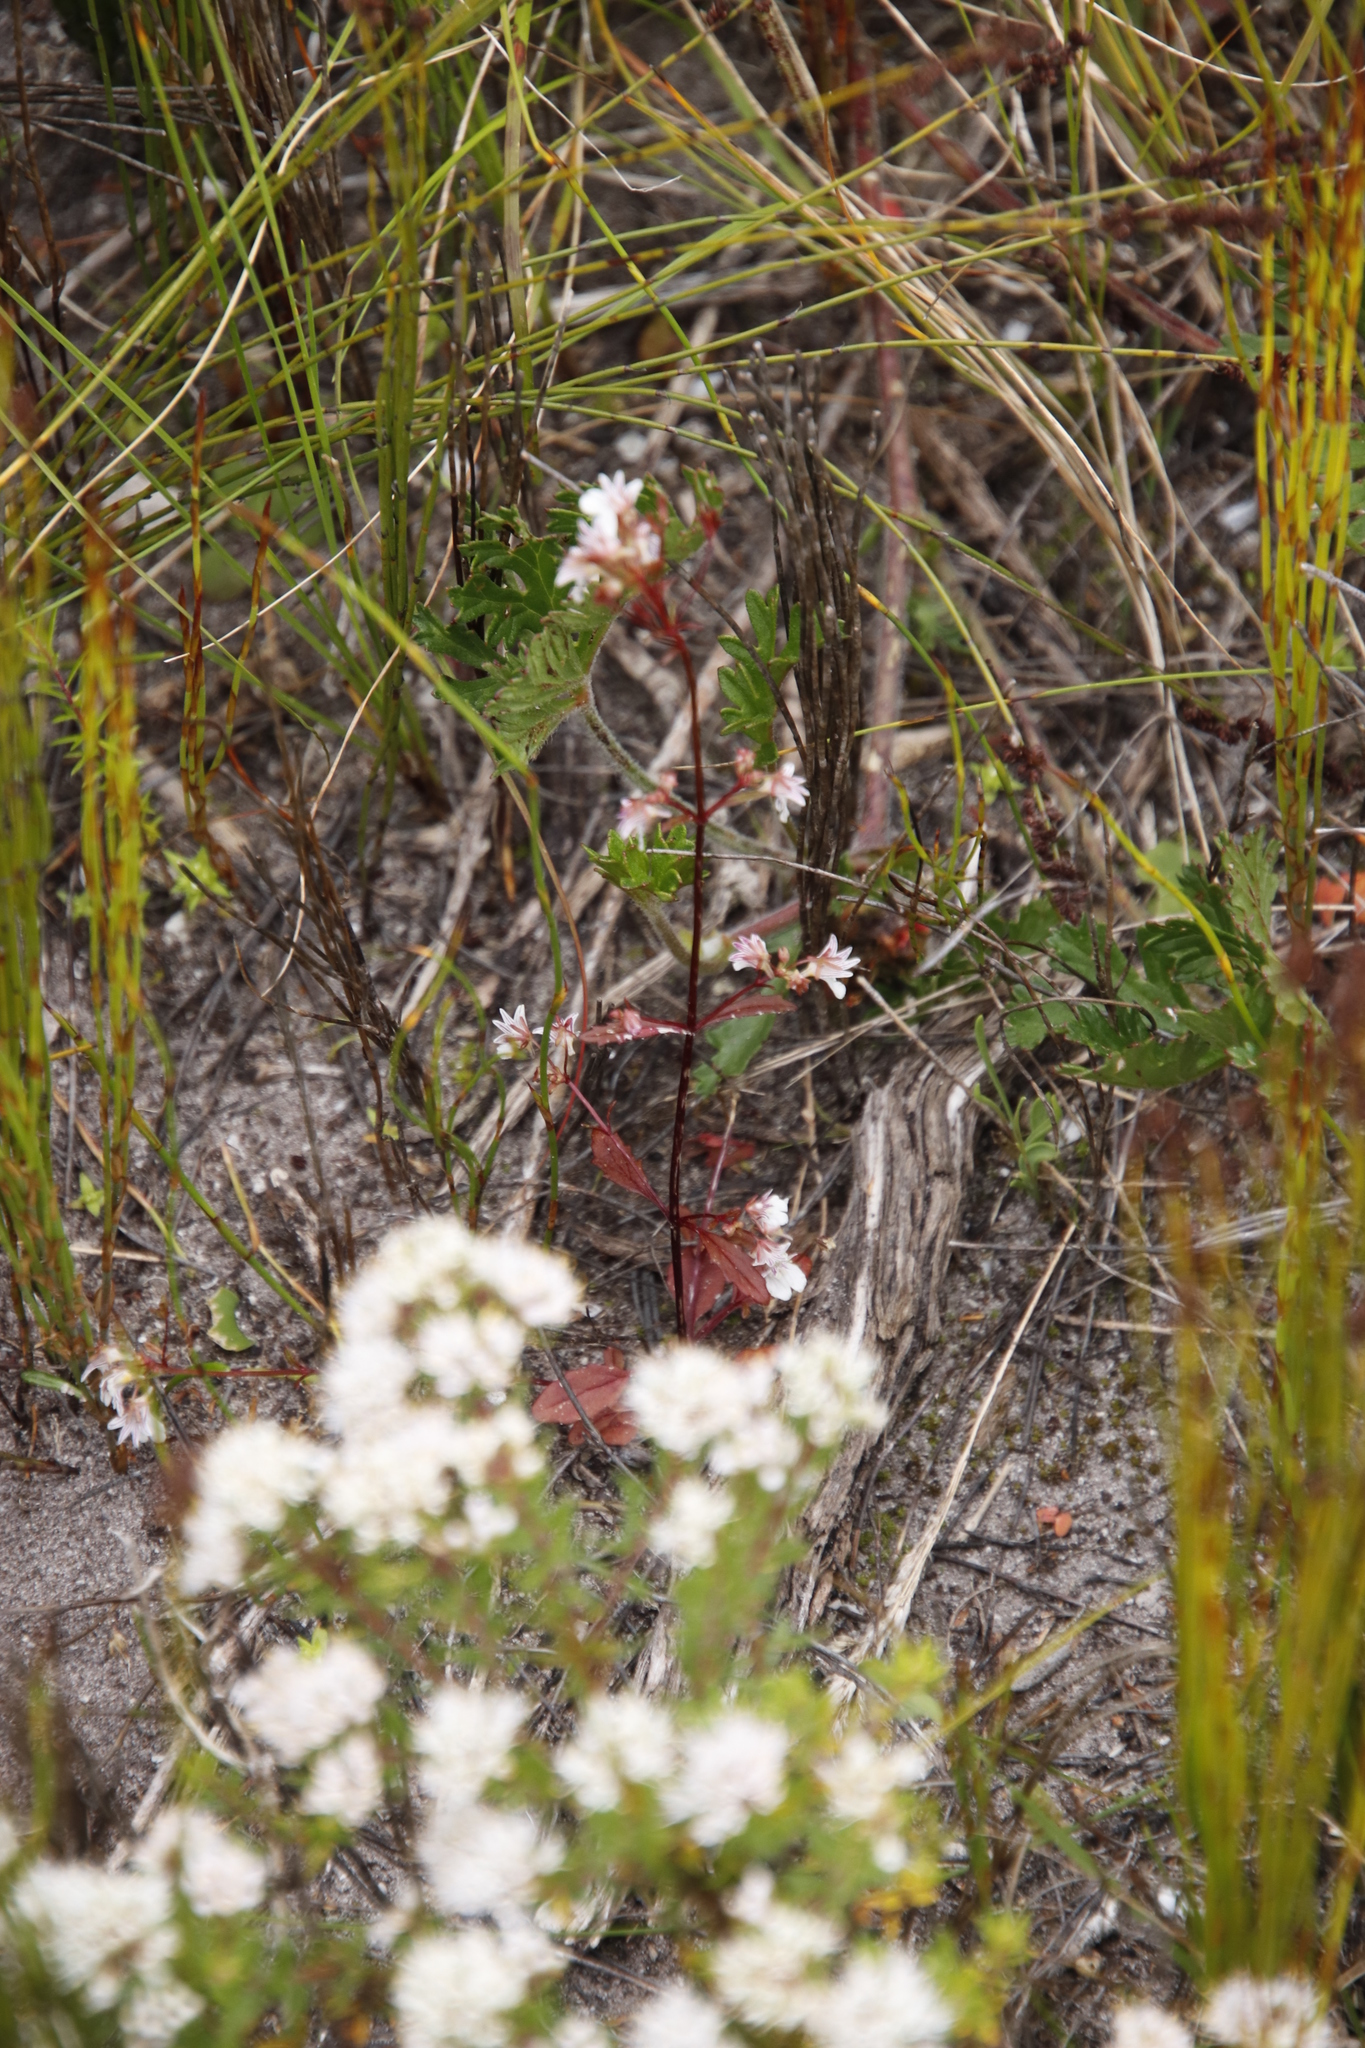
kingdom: Plantae
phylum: Tracheophyta
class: Magnoliopsida
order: Lamiales
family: Scrophulariaceae
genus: Nemesia
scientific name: Nemesia bicornis
